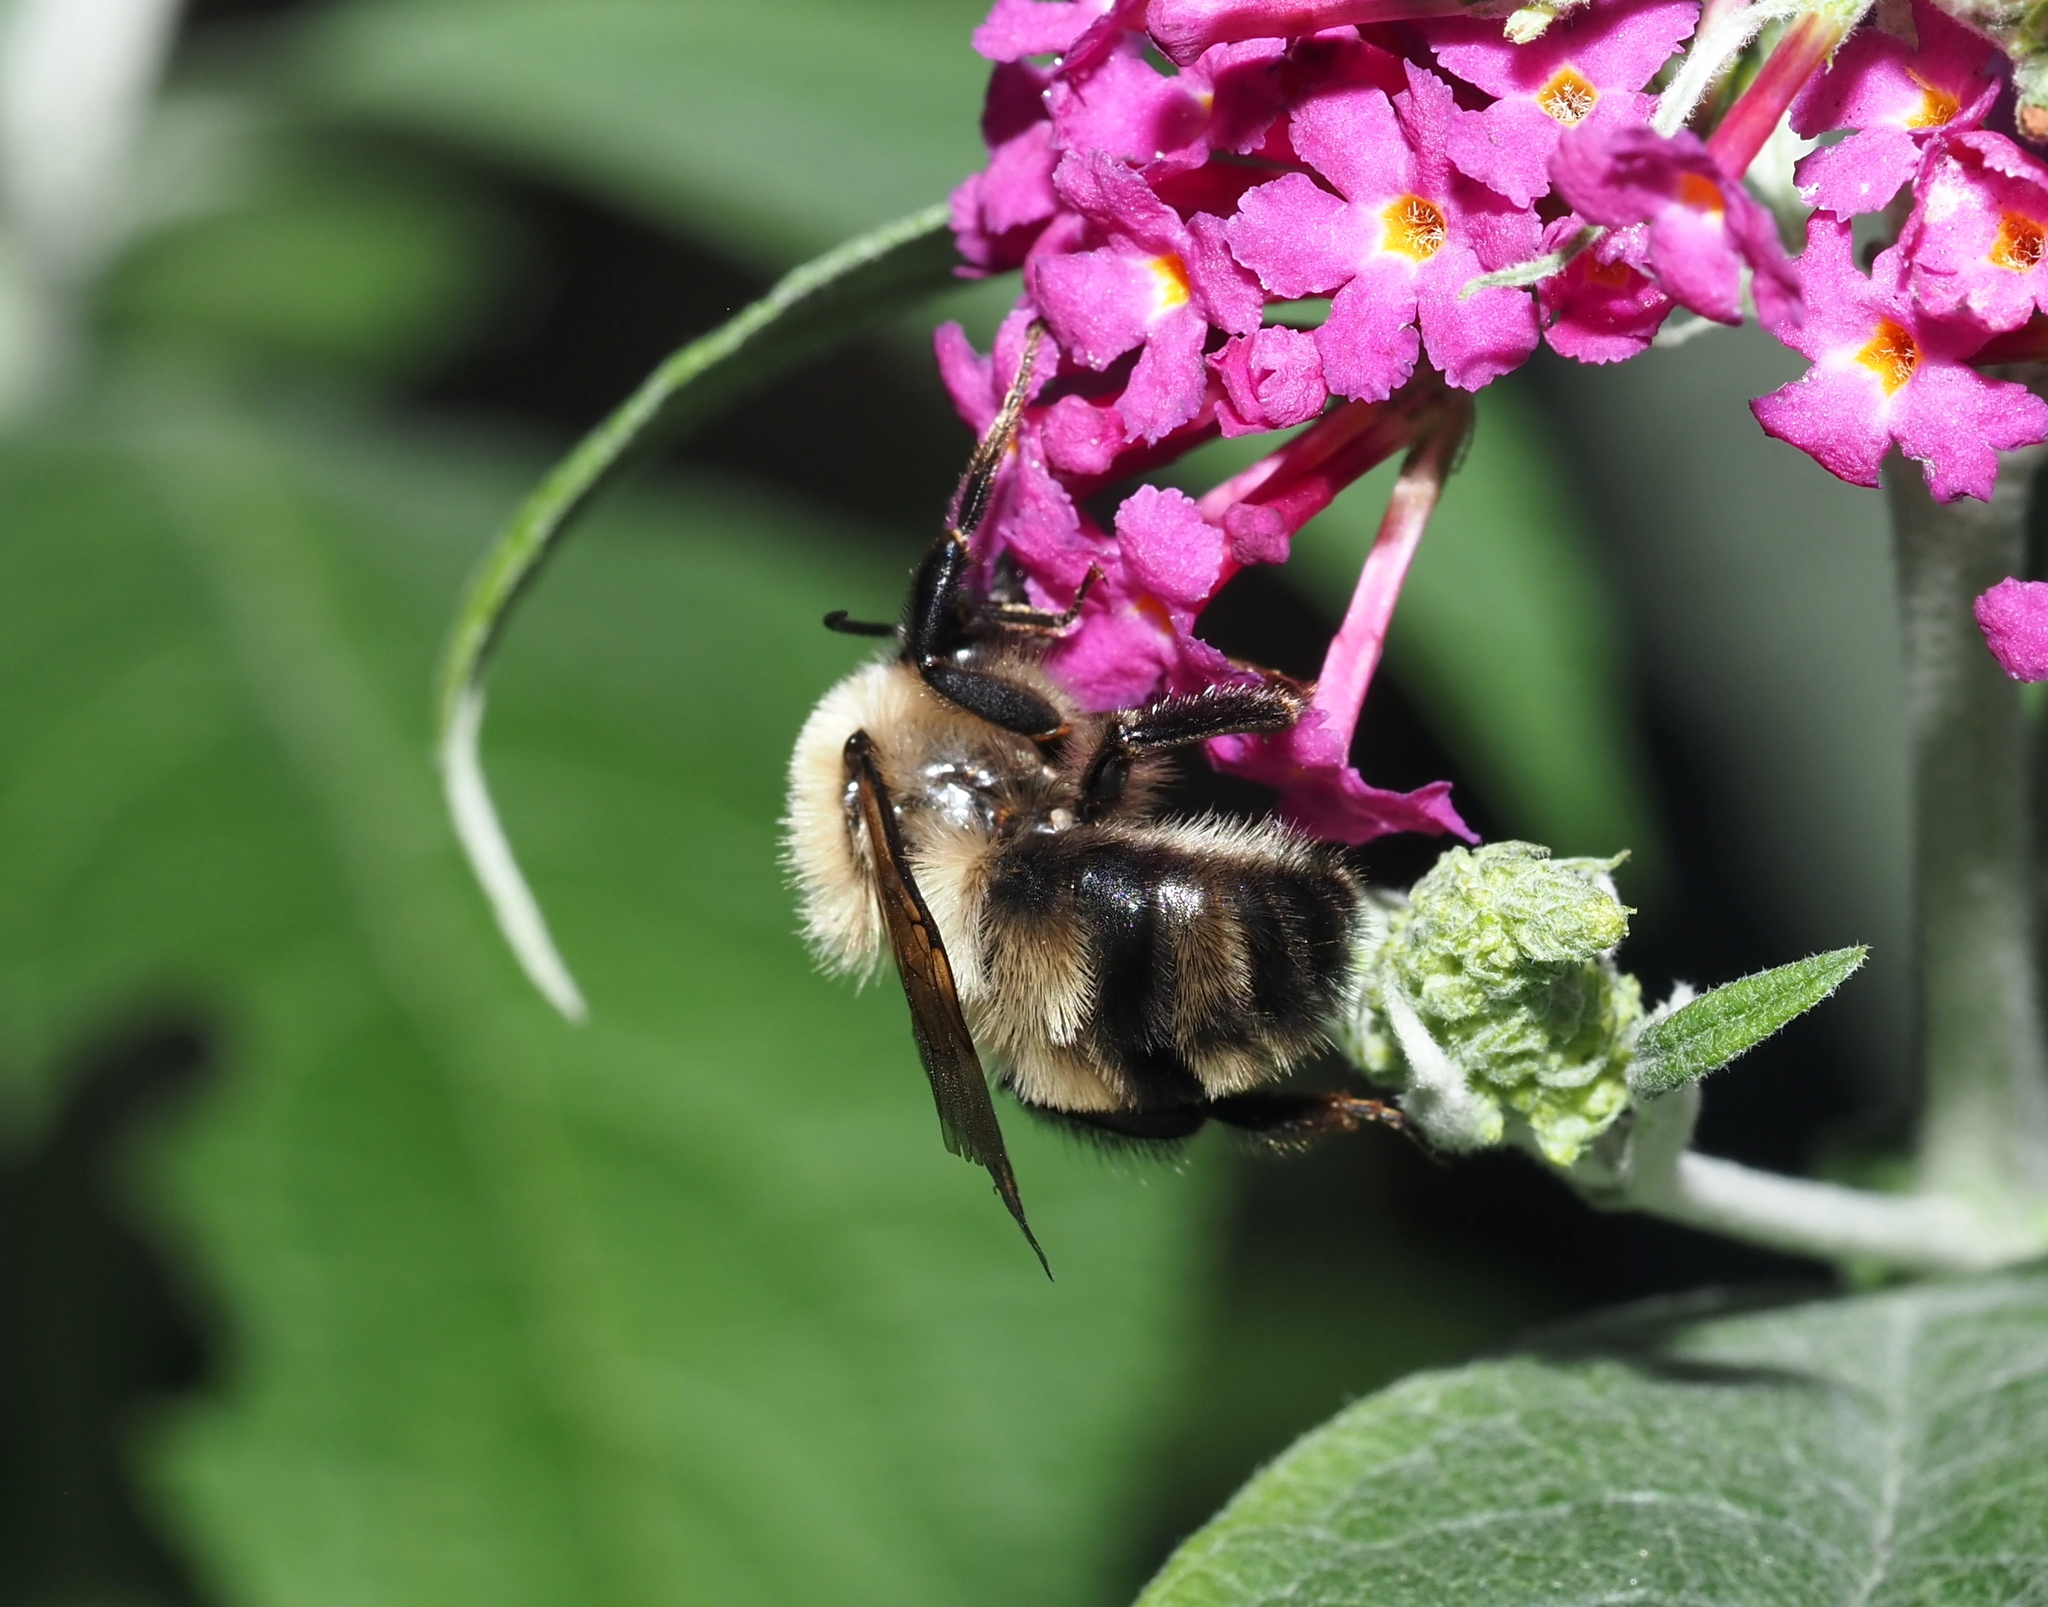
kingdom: Animalia
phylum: Arthropoda
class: Insecta
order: Hymenoptera
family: Apidae
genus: Bombus
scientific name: Bombus bimaculatus
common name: Two-spotted bumble bee
